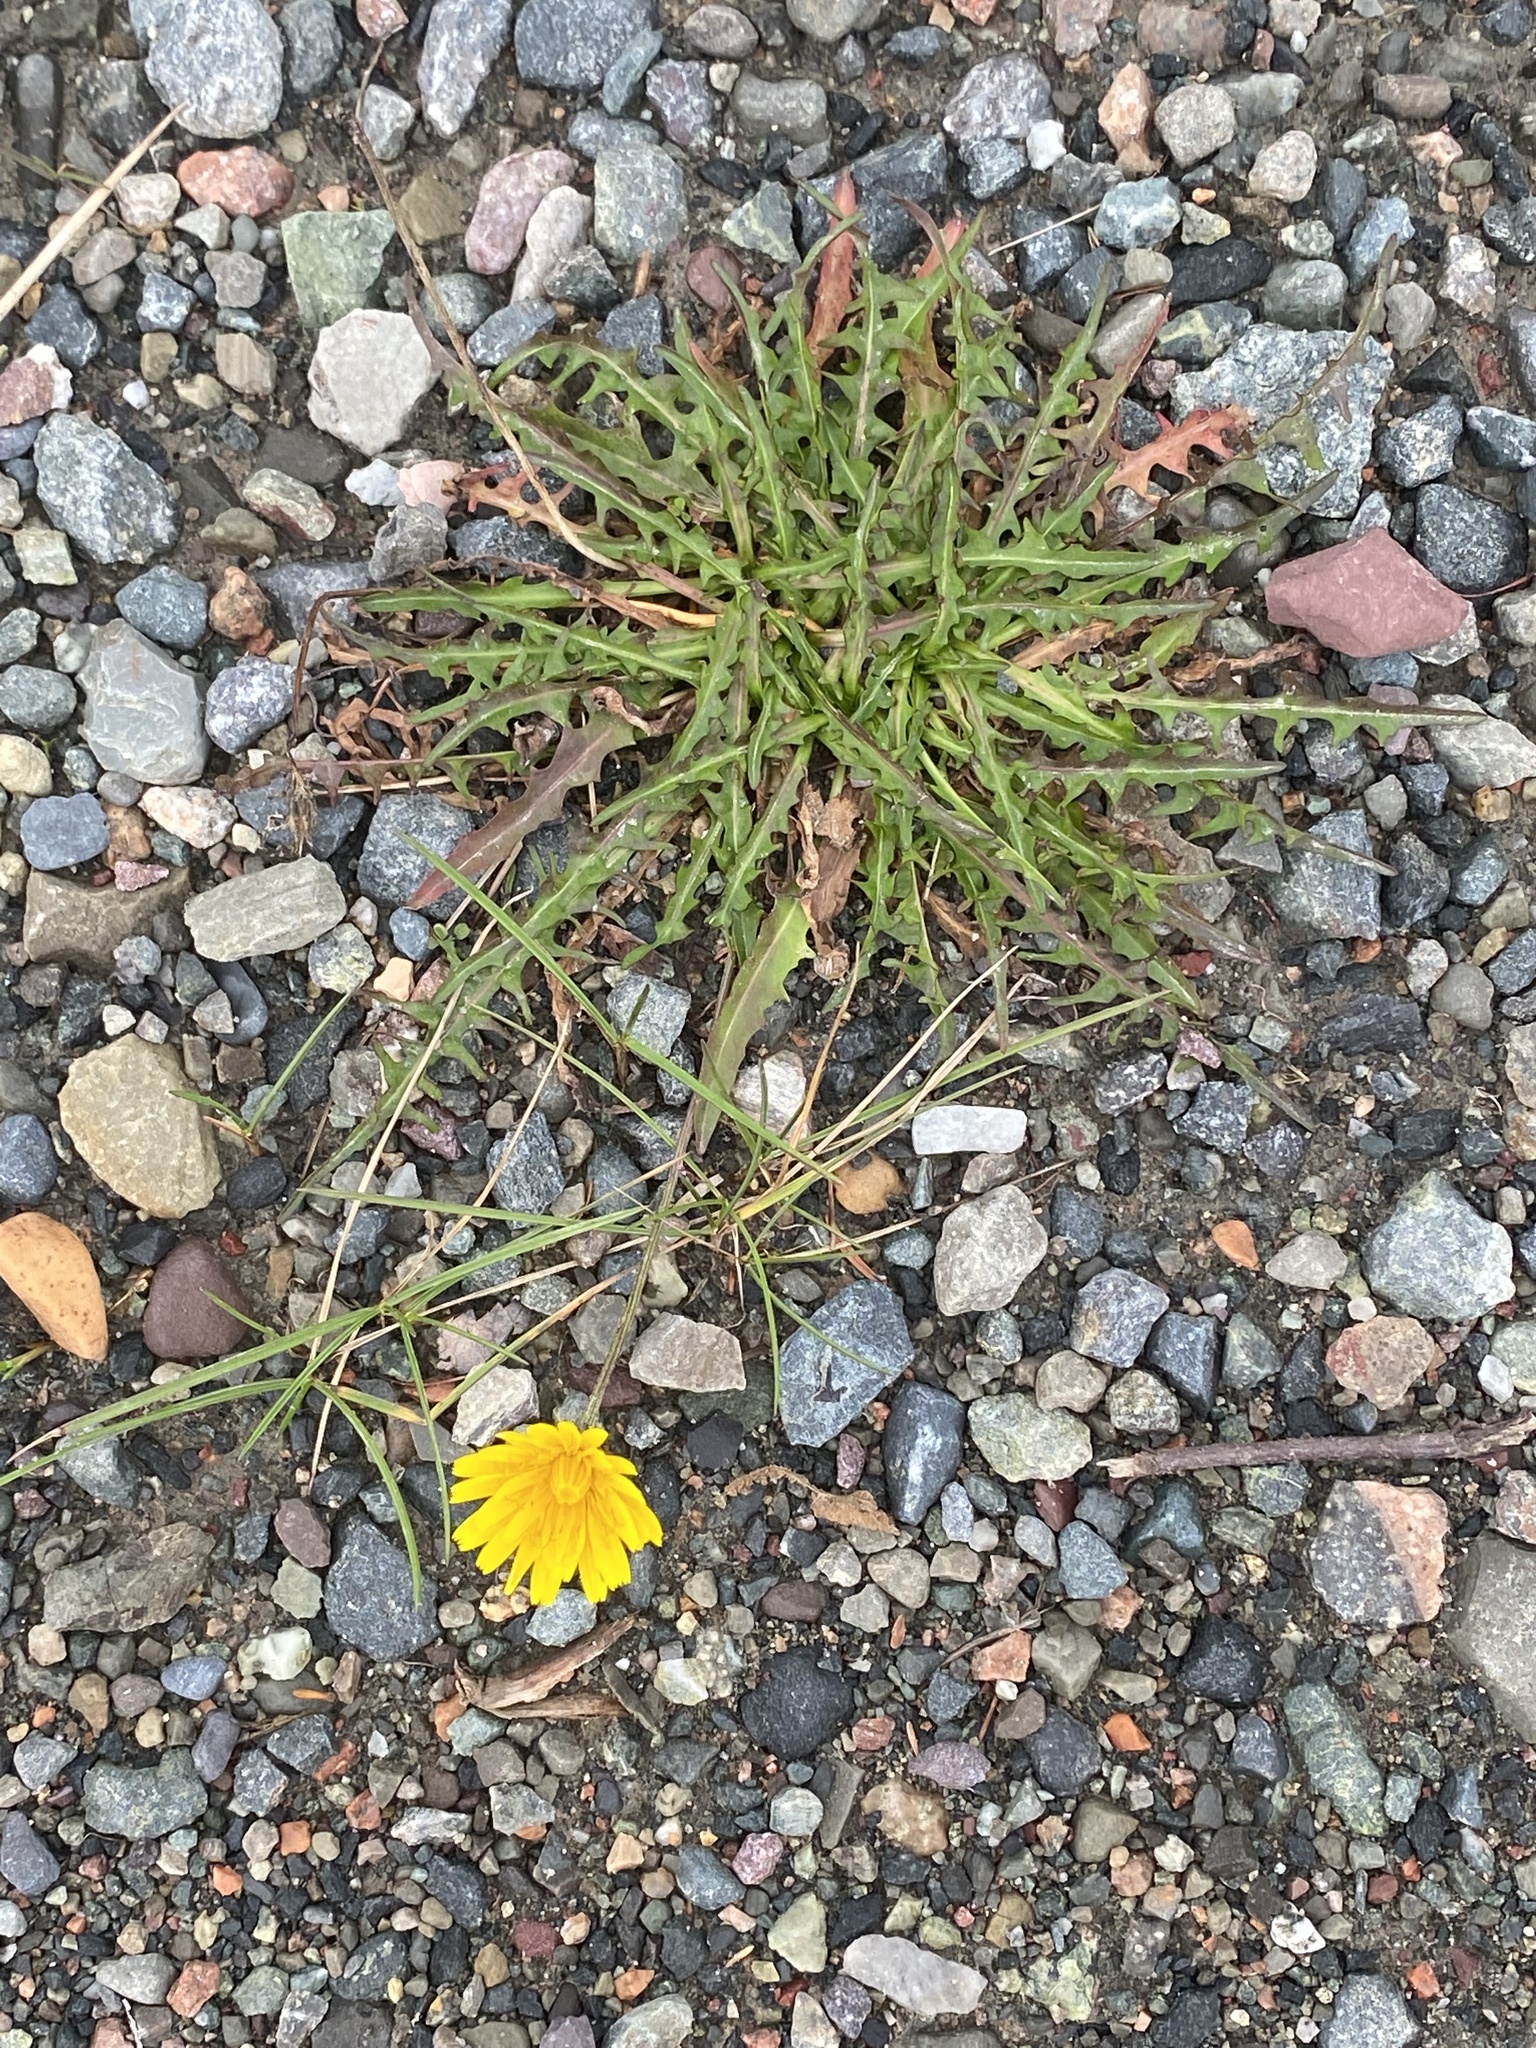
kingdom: Plantae
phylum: Tracheophyta
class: Magnoliopsida
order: Asterales
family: Asteraceae
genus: Scorzoneroides
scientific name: Scorzoneroides autumnalis
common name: Autumn hawkbit
